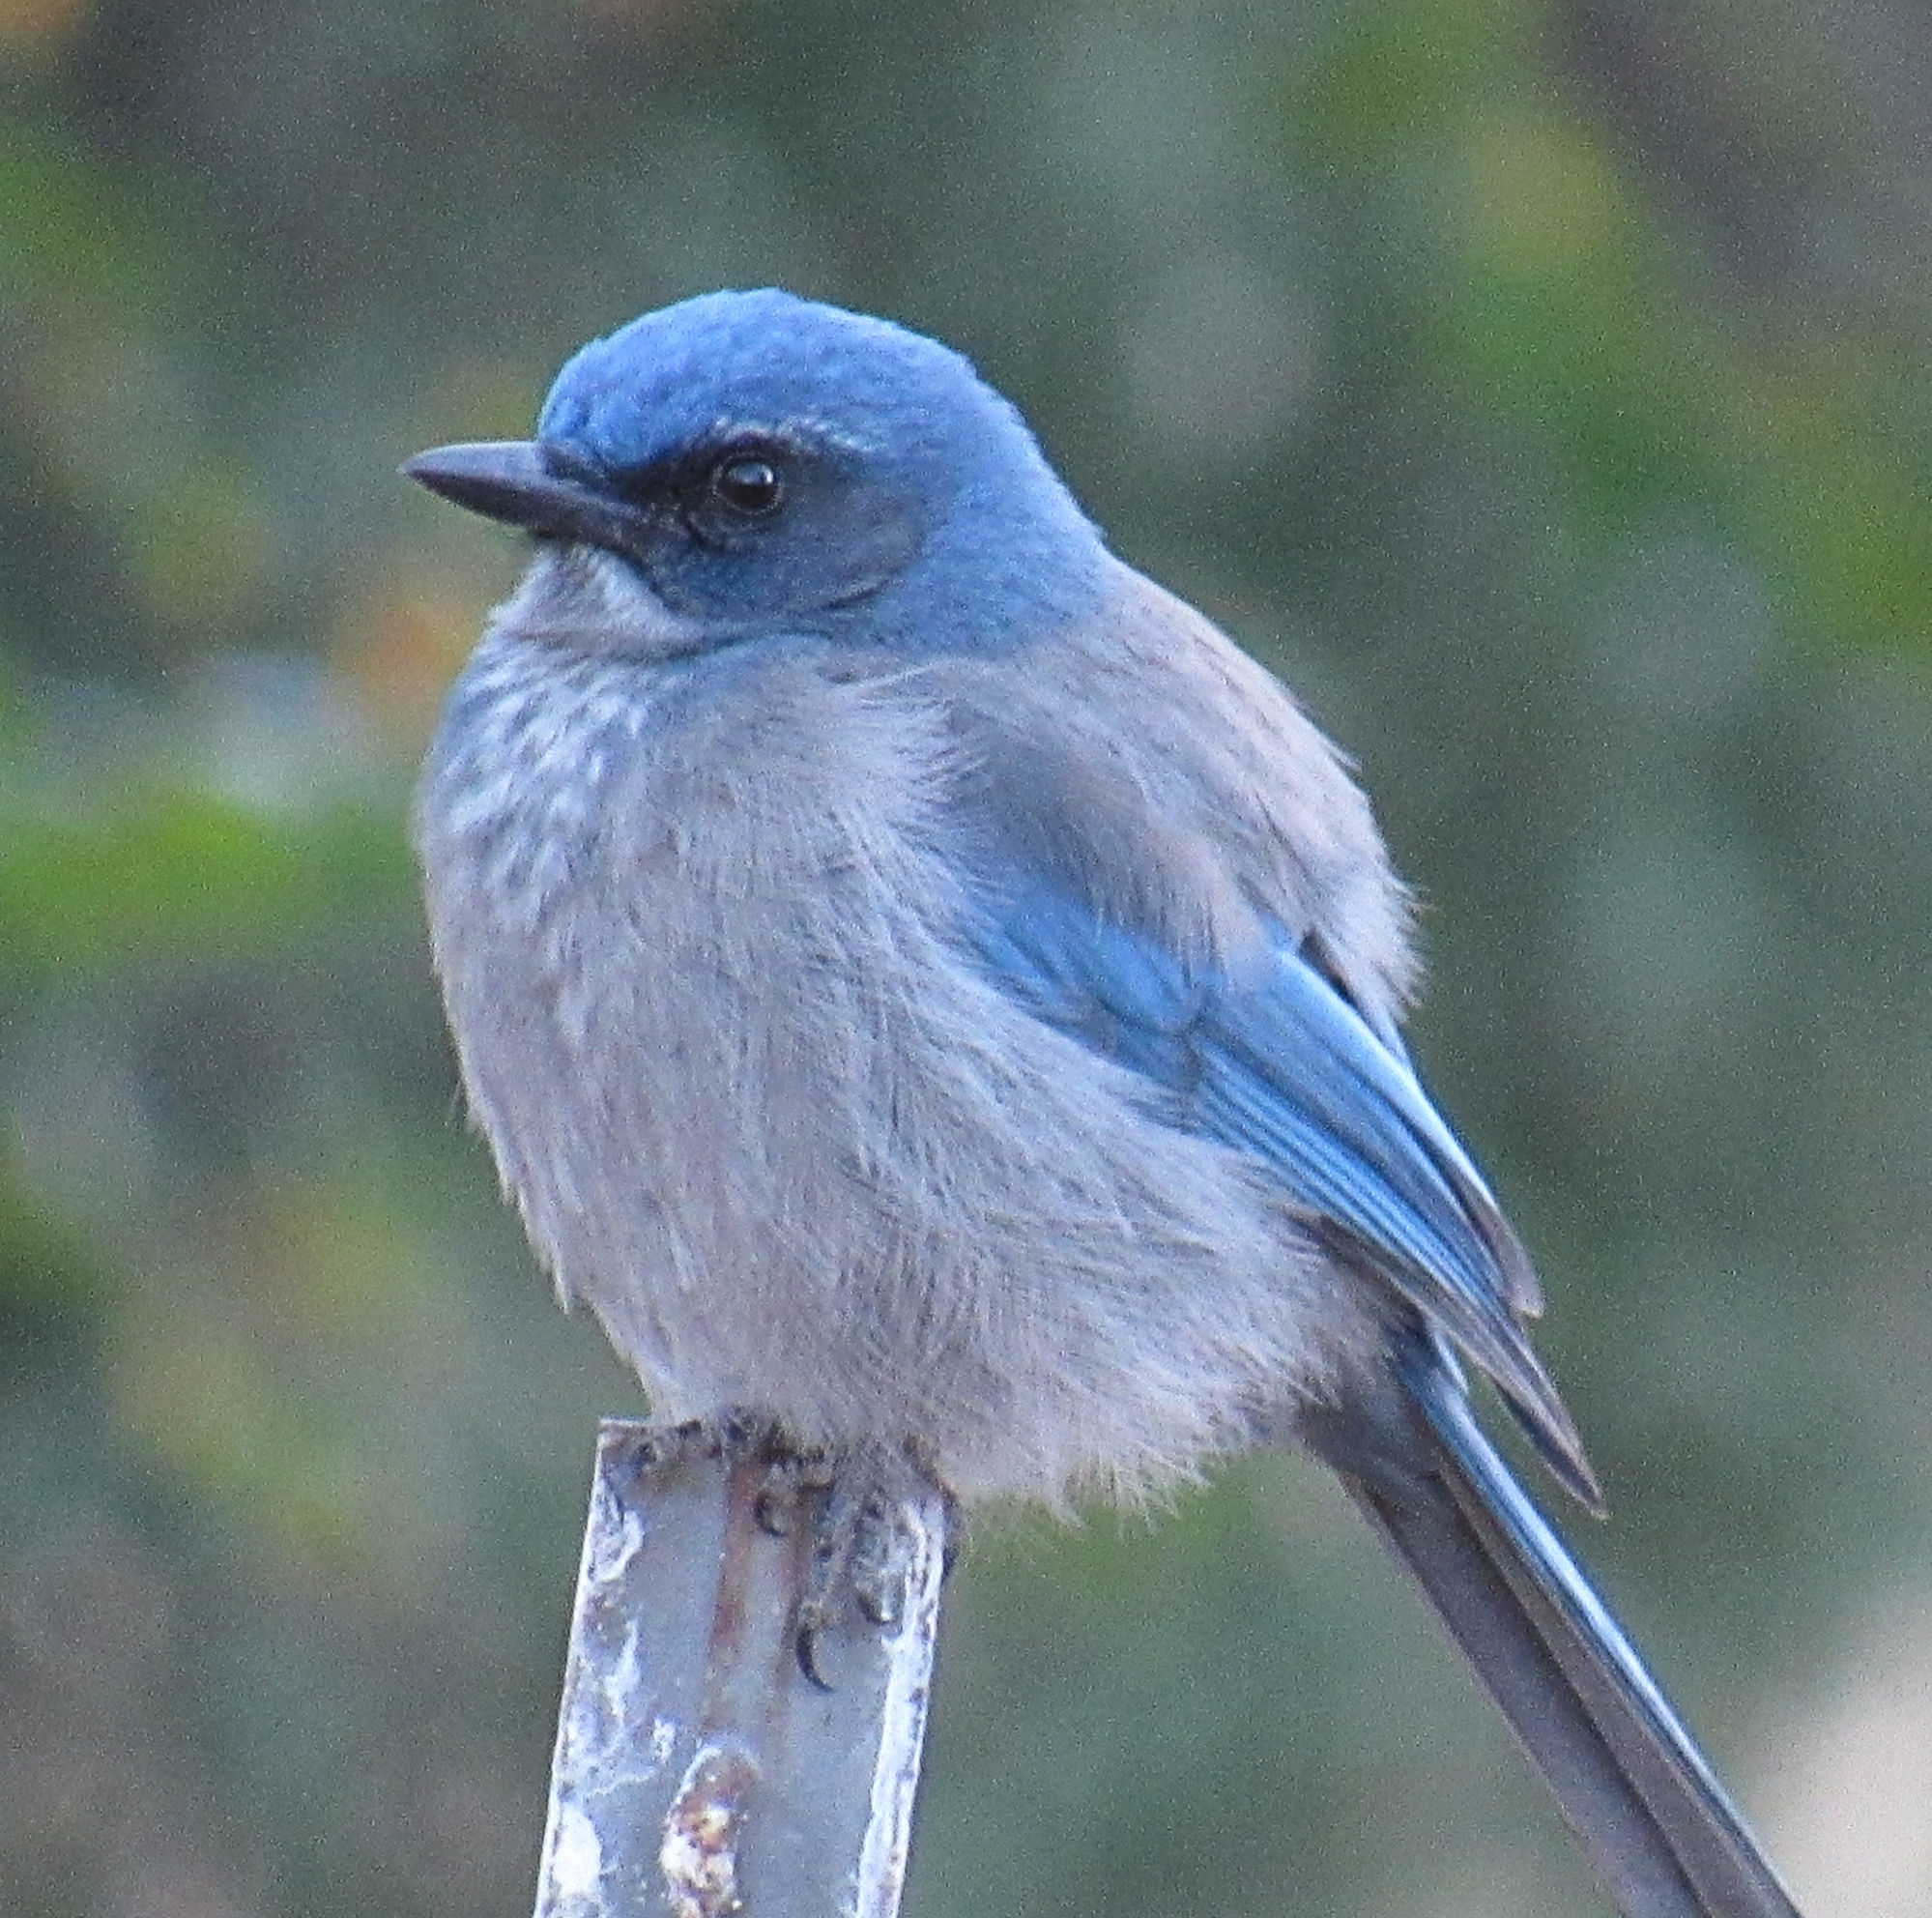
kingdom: Animalia
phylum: Chordata
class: Aves
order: Passeriformes
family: Corvidae
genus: Aphelocoma
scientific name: Aphelocoma woodhouseii
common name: Woodhouse's scrub-jay
